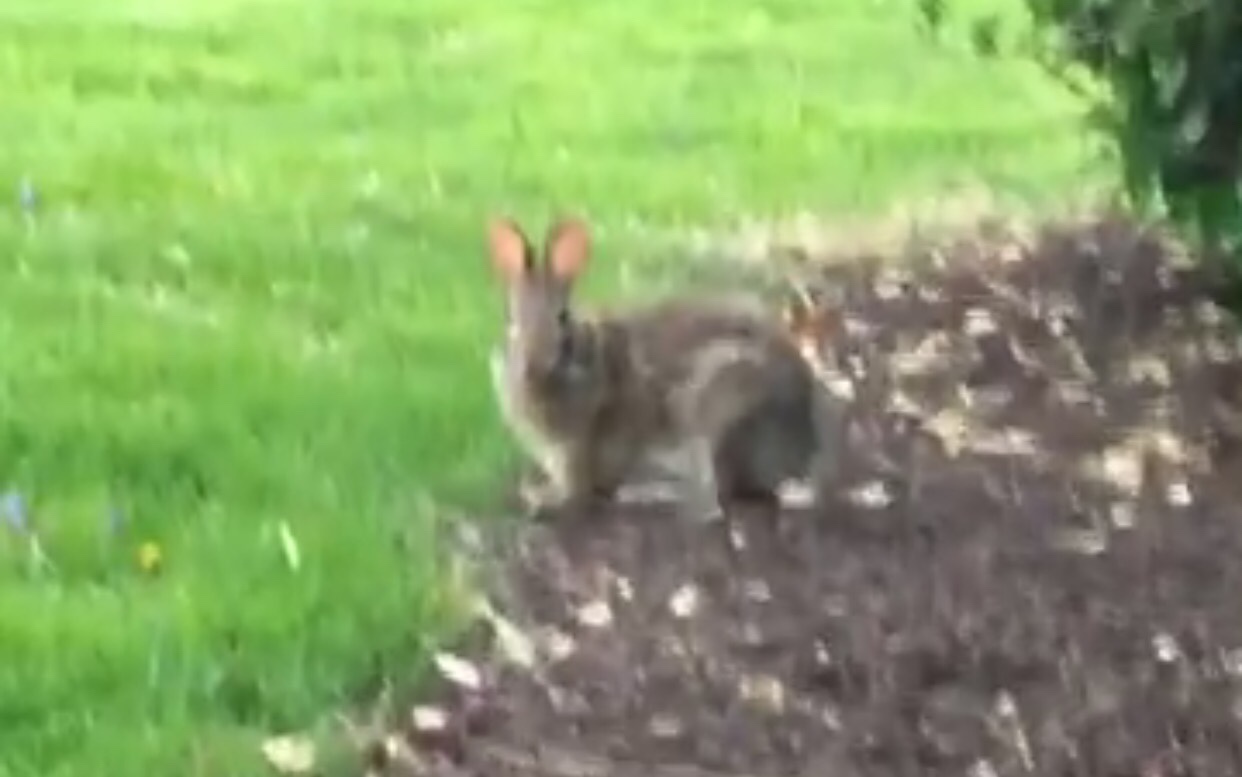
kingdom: Animalia
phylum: Chordata
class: Mammalia
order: Lagomorpha
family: Leporidae
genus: Sylvilagus
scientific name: Sylvilagus floridanus
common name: Eastern cottontail
